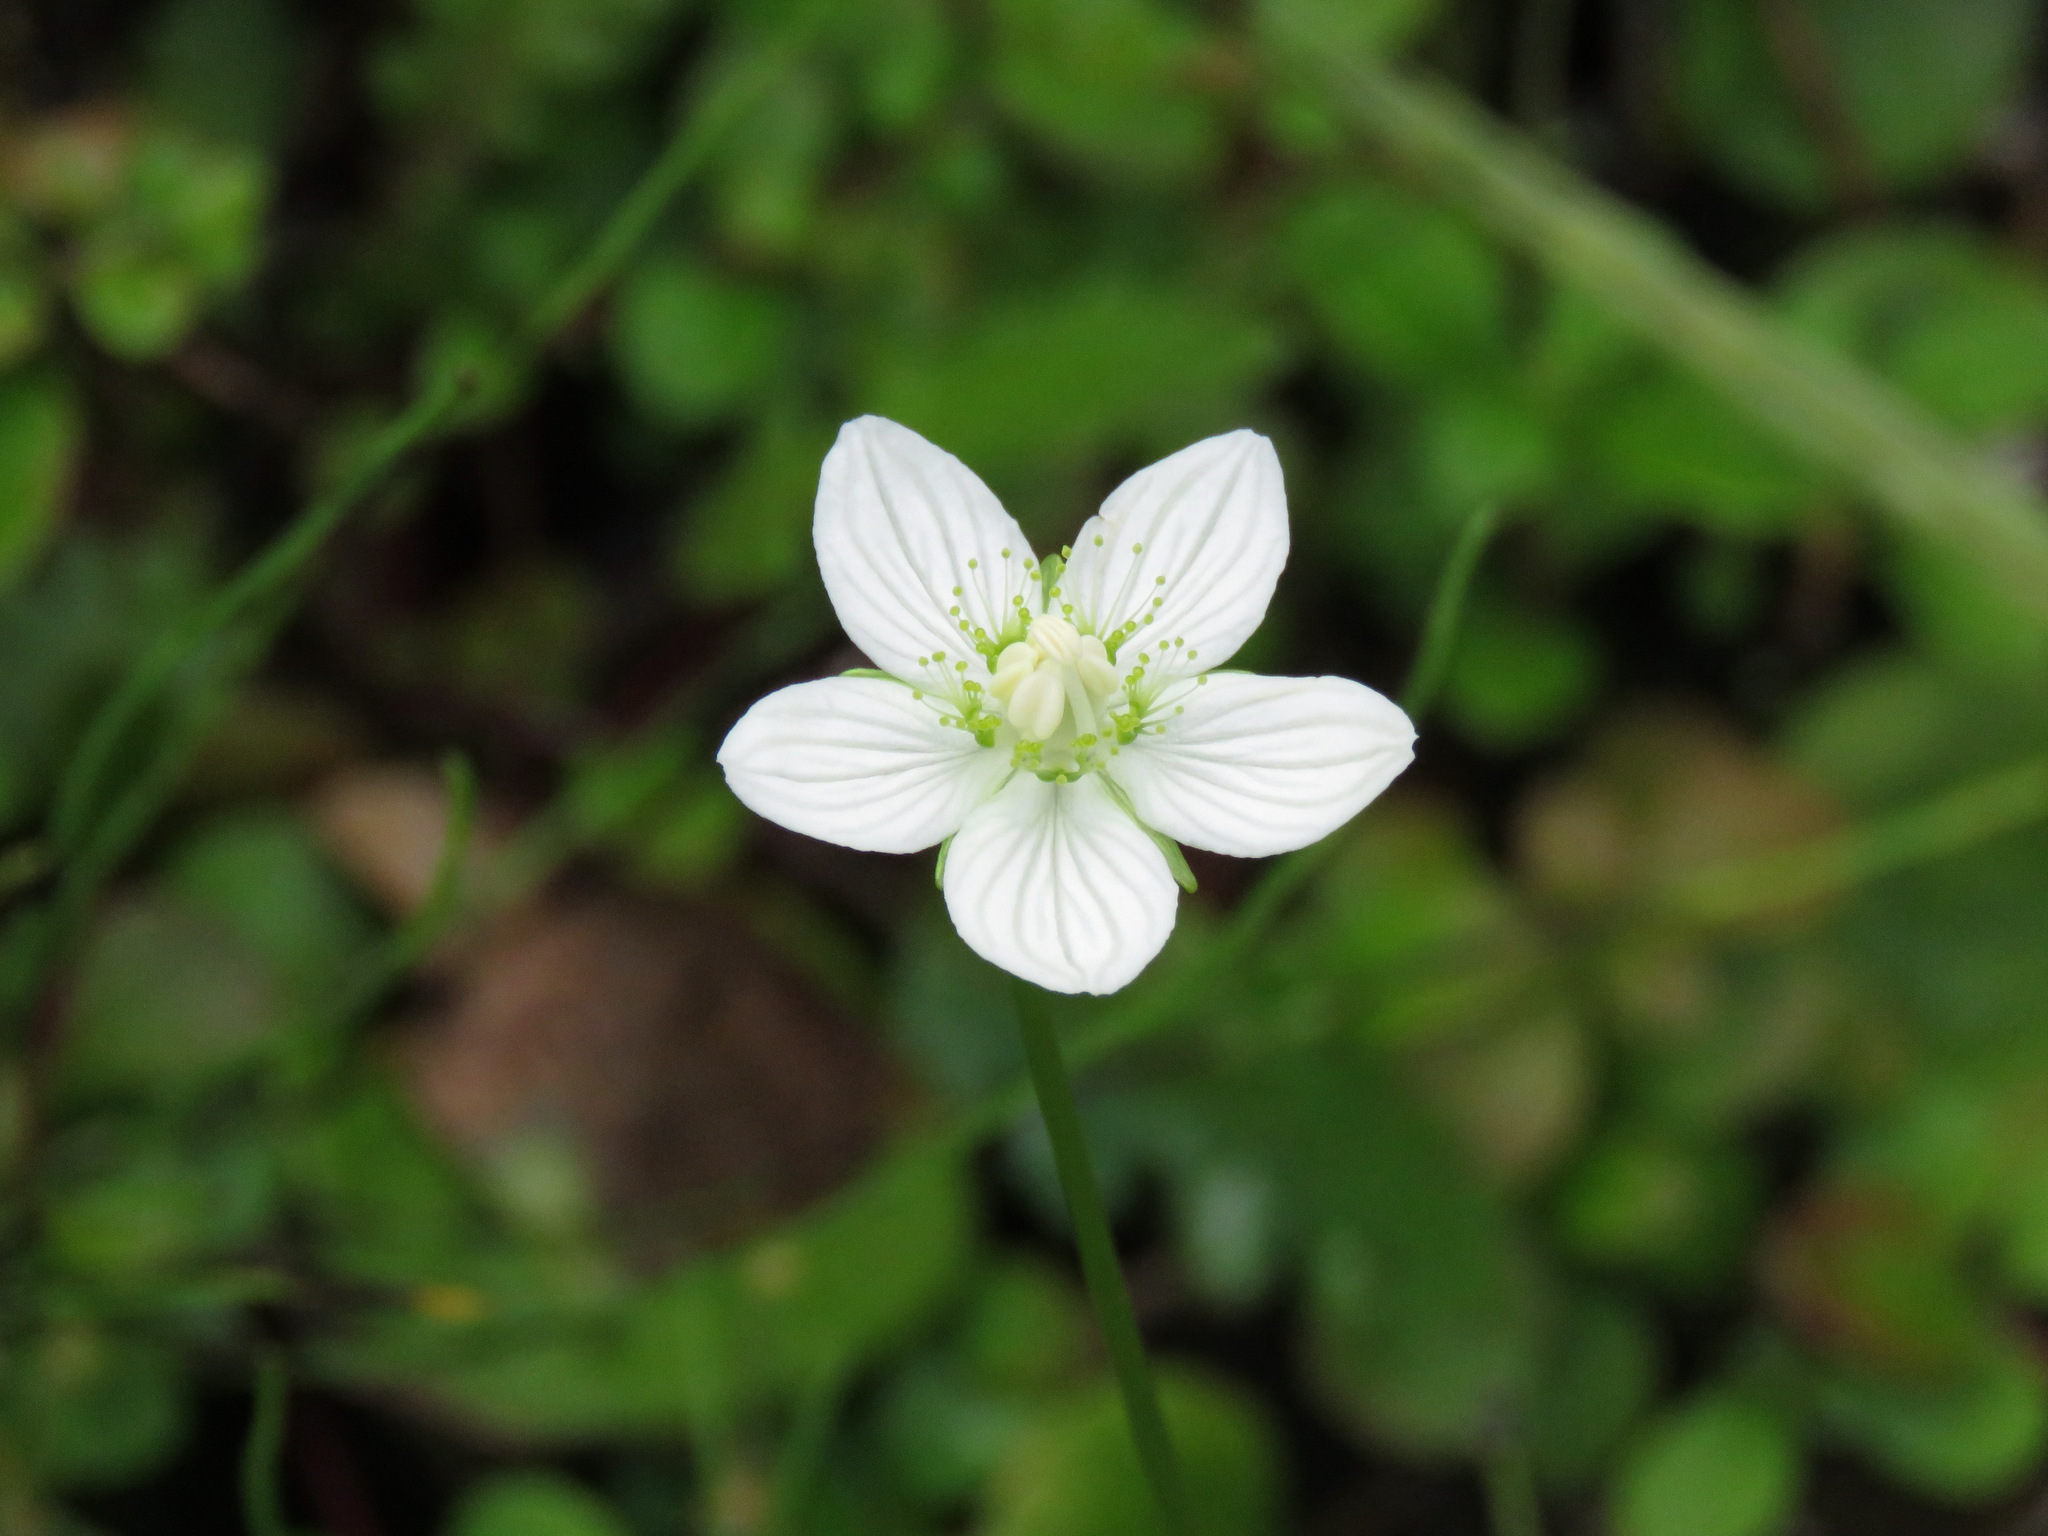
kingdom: Plantae
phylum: Tracheophyta
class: Magnoliopsida
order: Celastrales
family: Parnassiaceae
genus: Parnassia
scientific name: Parnassia palustris
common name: Grass-of-parnassus
